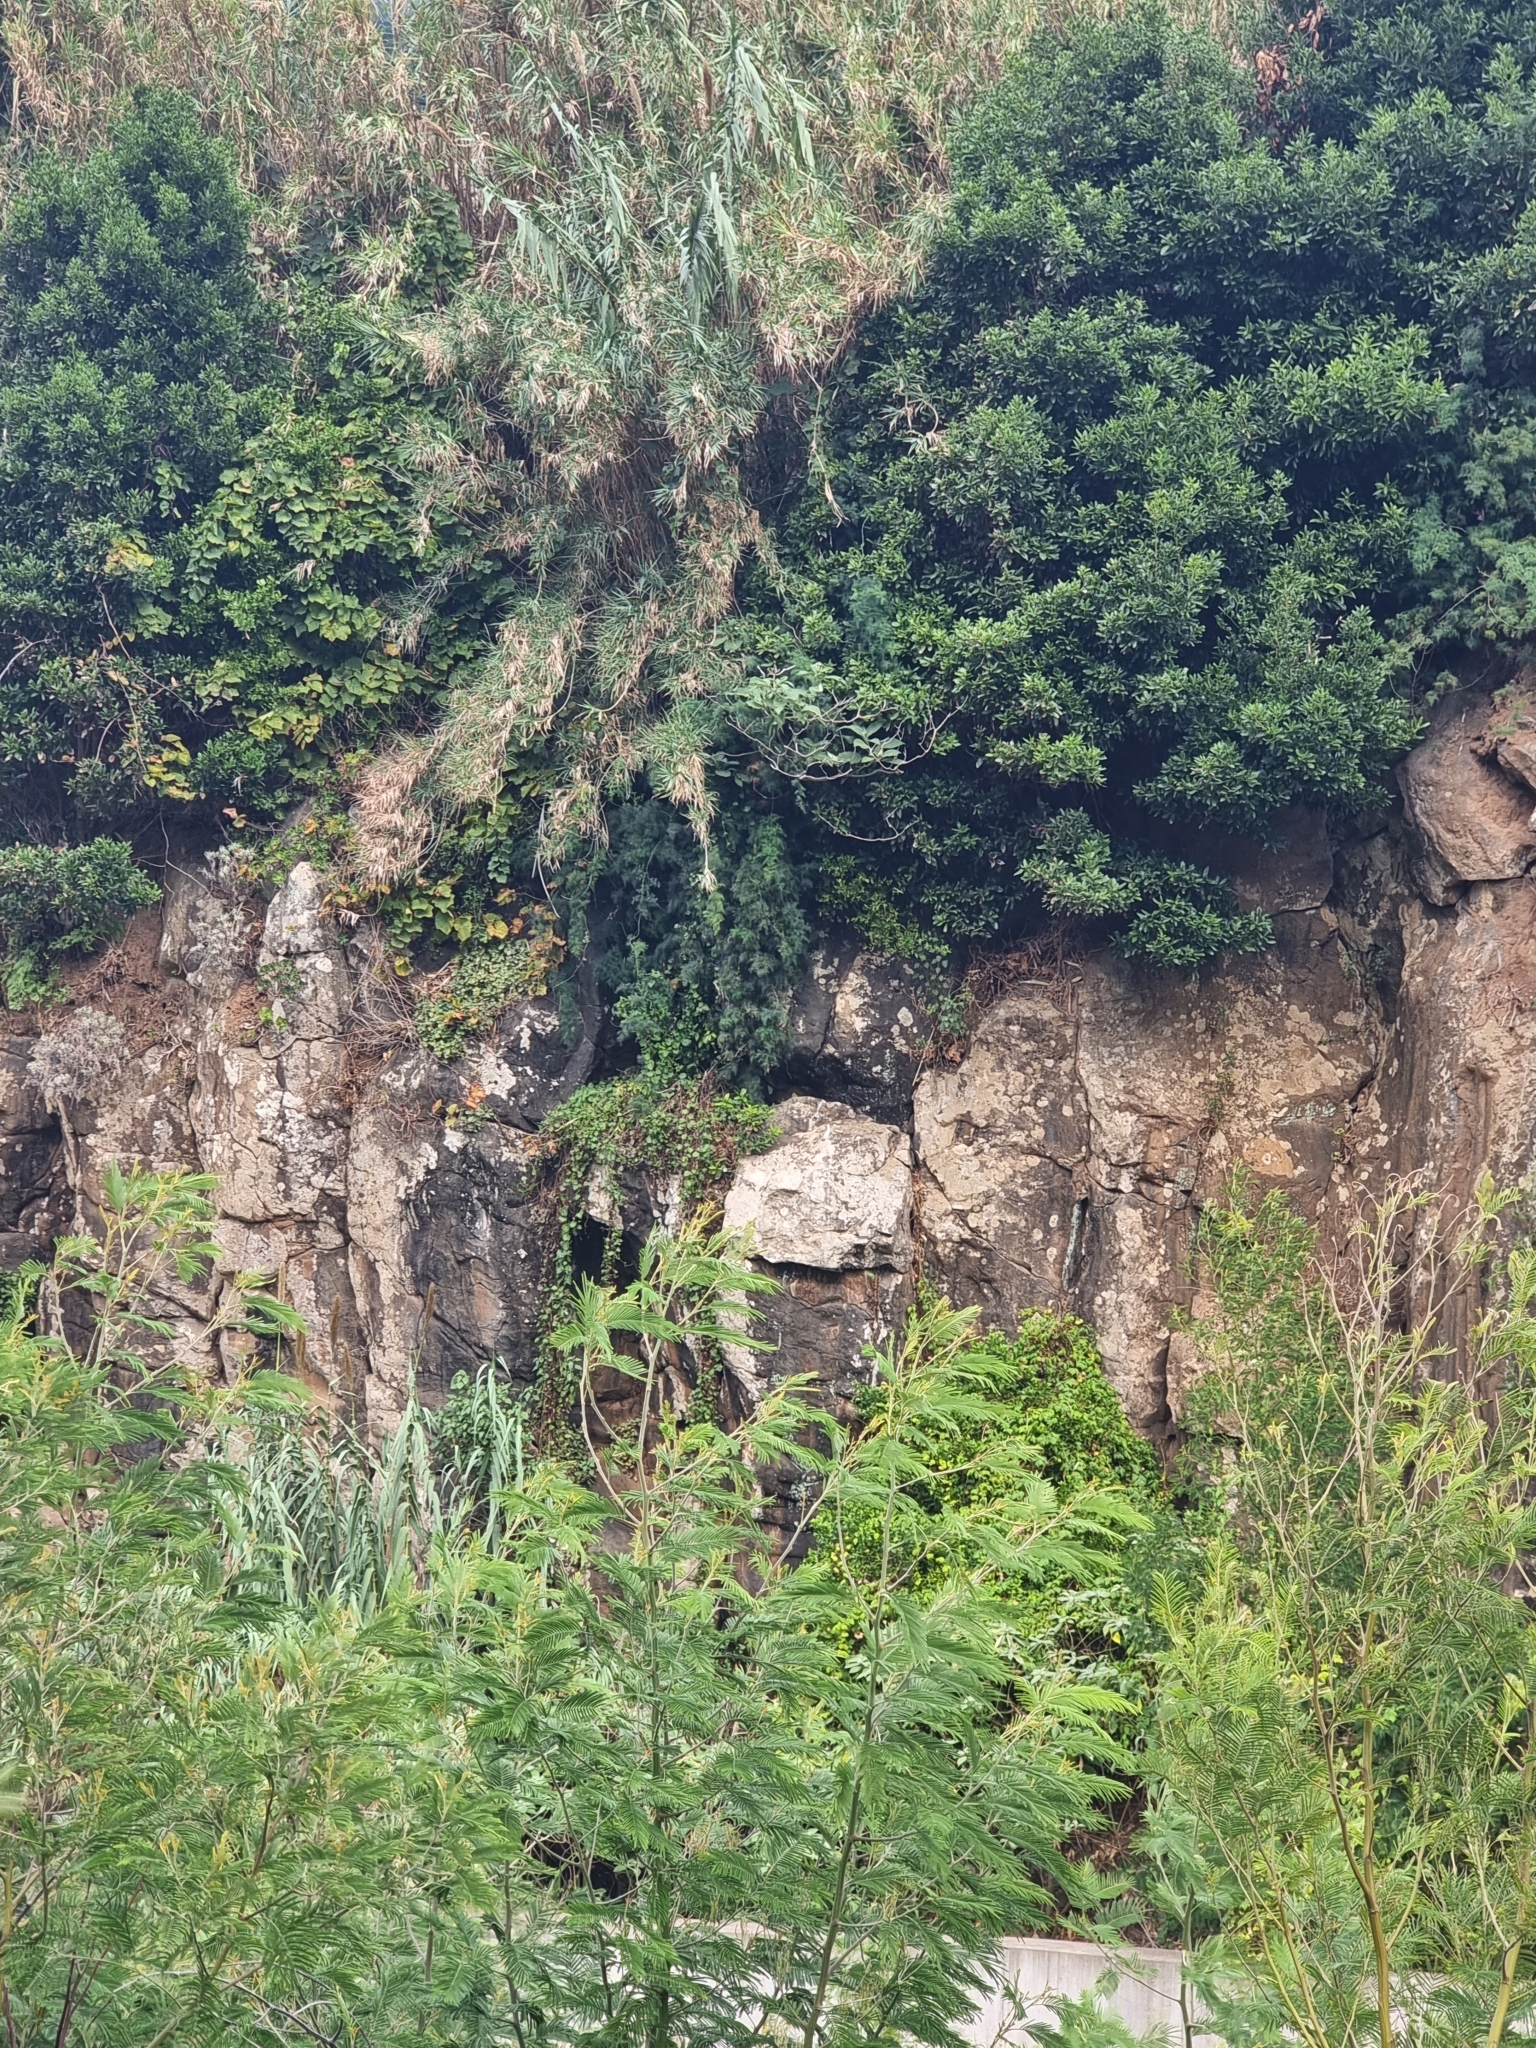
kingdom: Plantae
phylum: Tracheophyta
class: Liliopsida
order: Asparagales
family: Asparagaceae
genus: Asparagus
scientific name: Asparagus umbellatus
